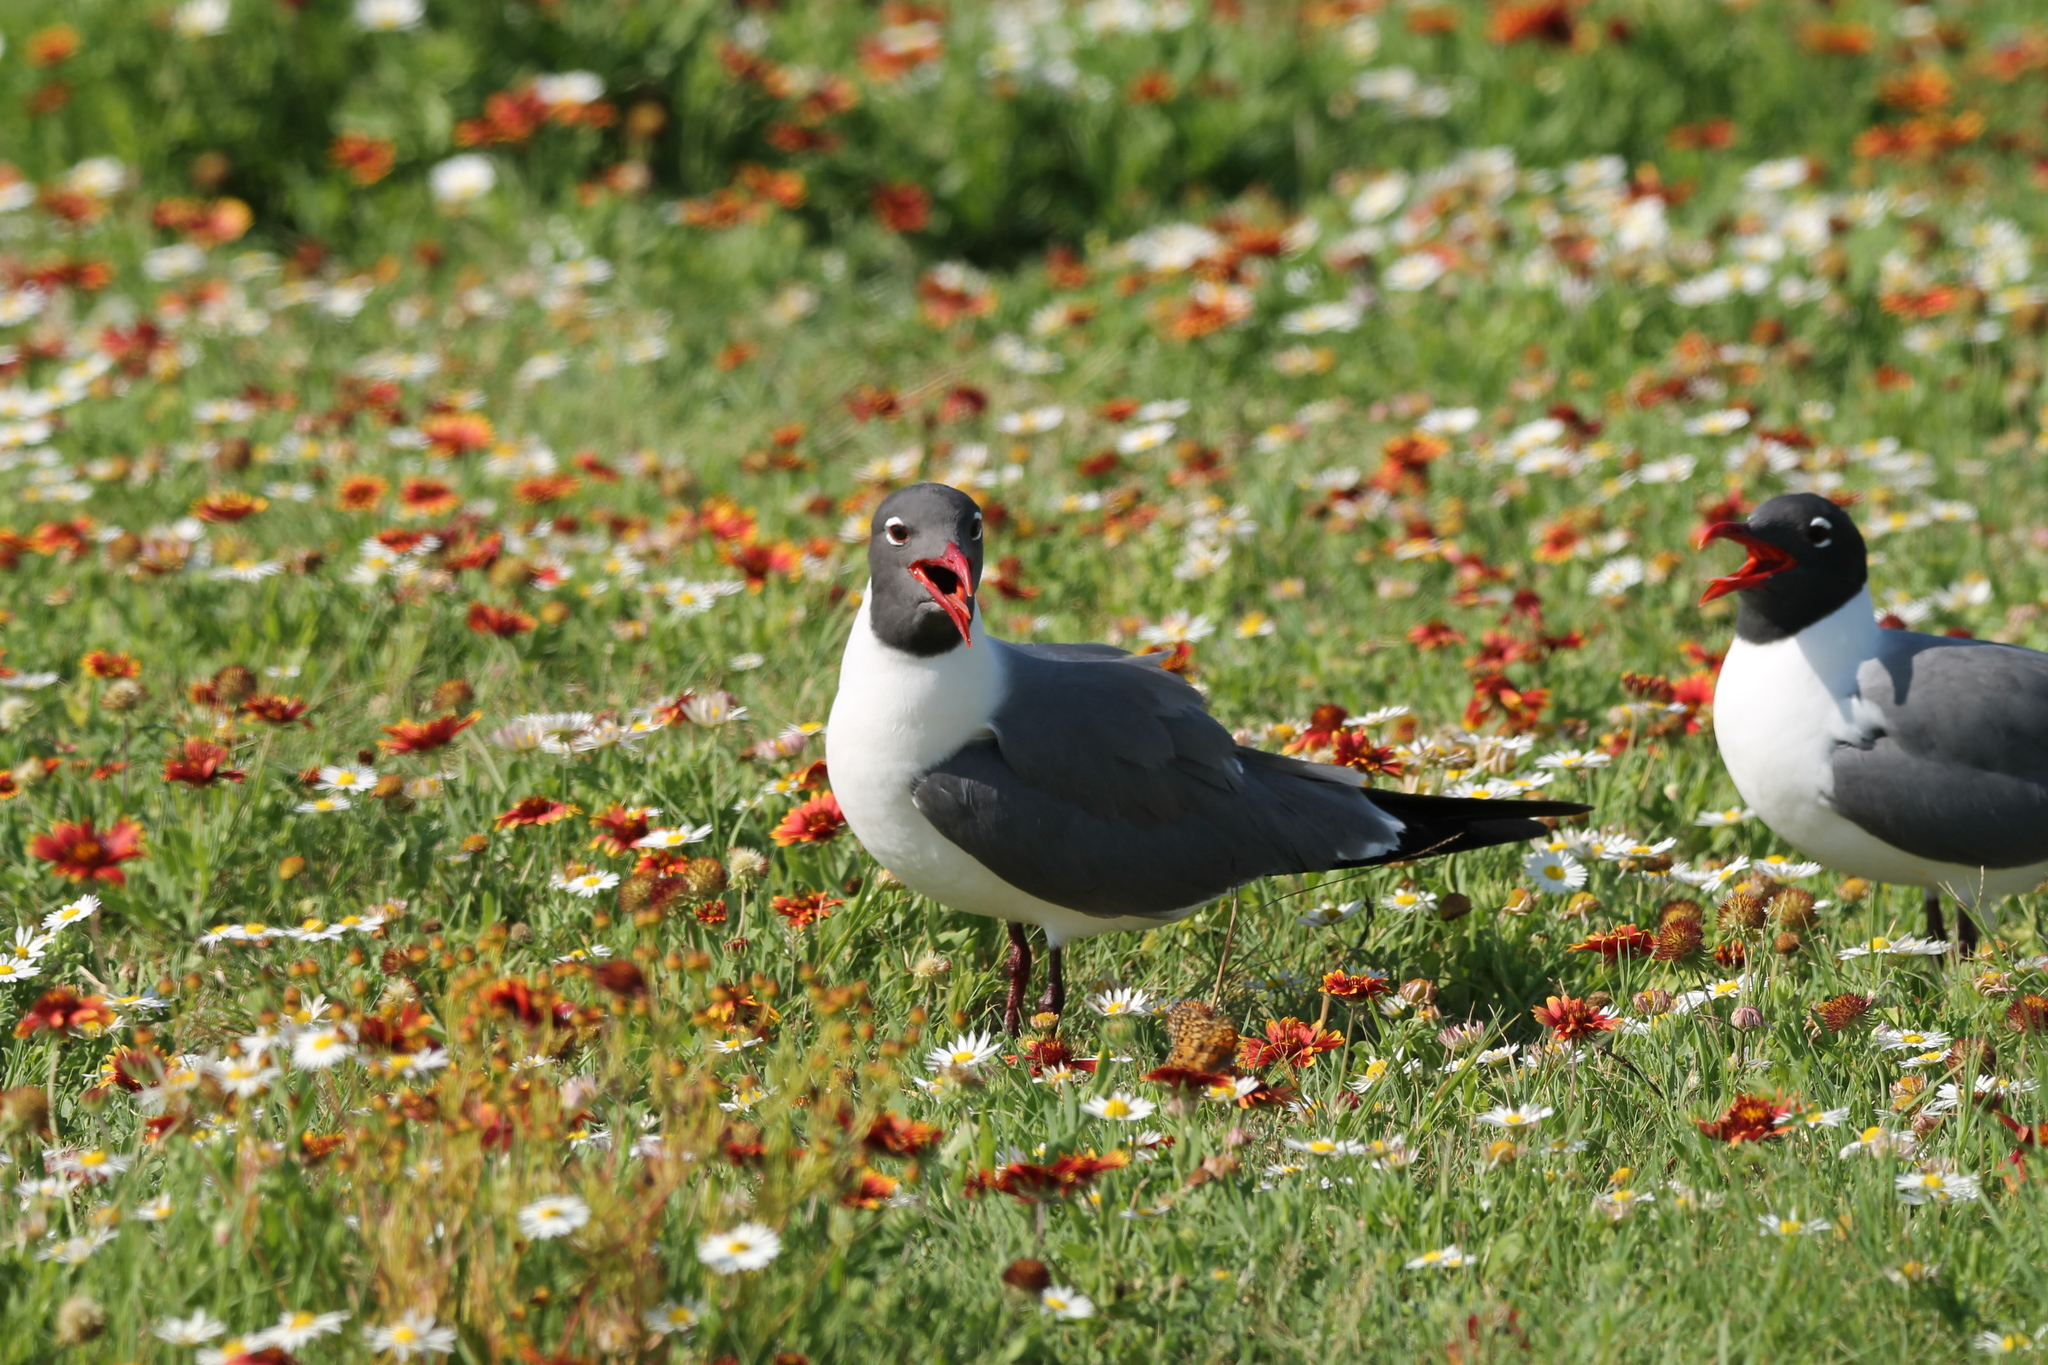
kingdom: Animalia
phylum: Chordata
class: Aves
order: Charadriiformes
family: Laridae
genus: Leucophaeus
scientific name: Leucophaeus atricilla
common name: Laughing gull
